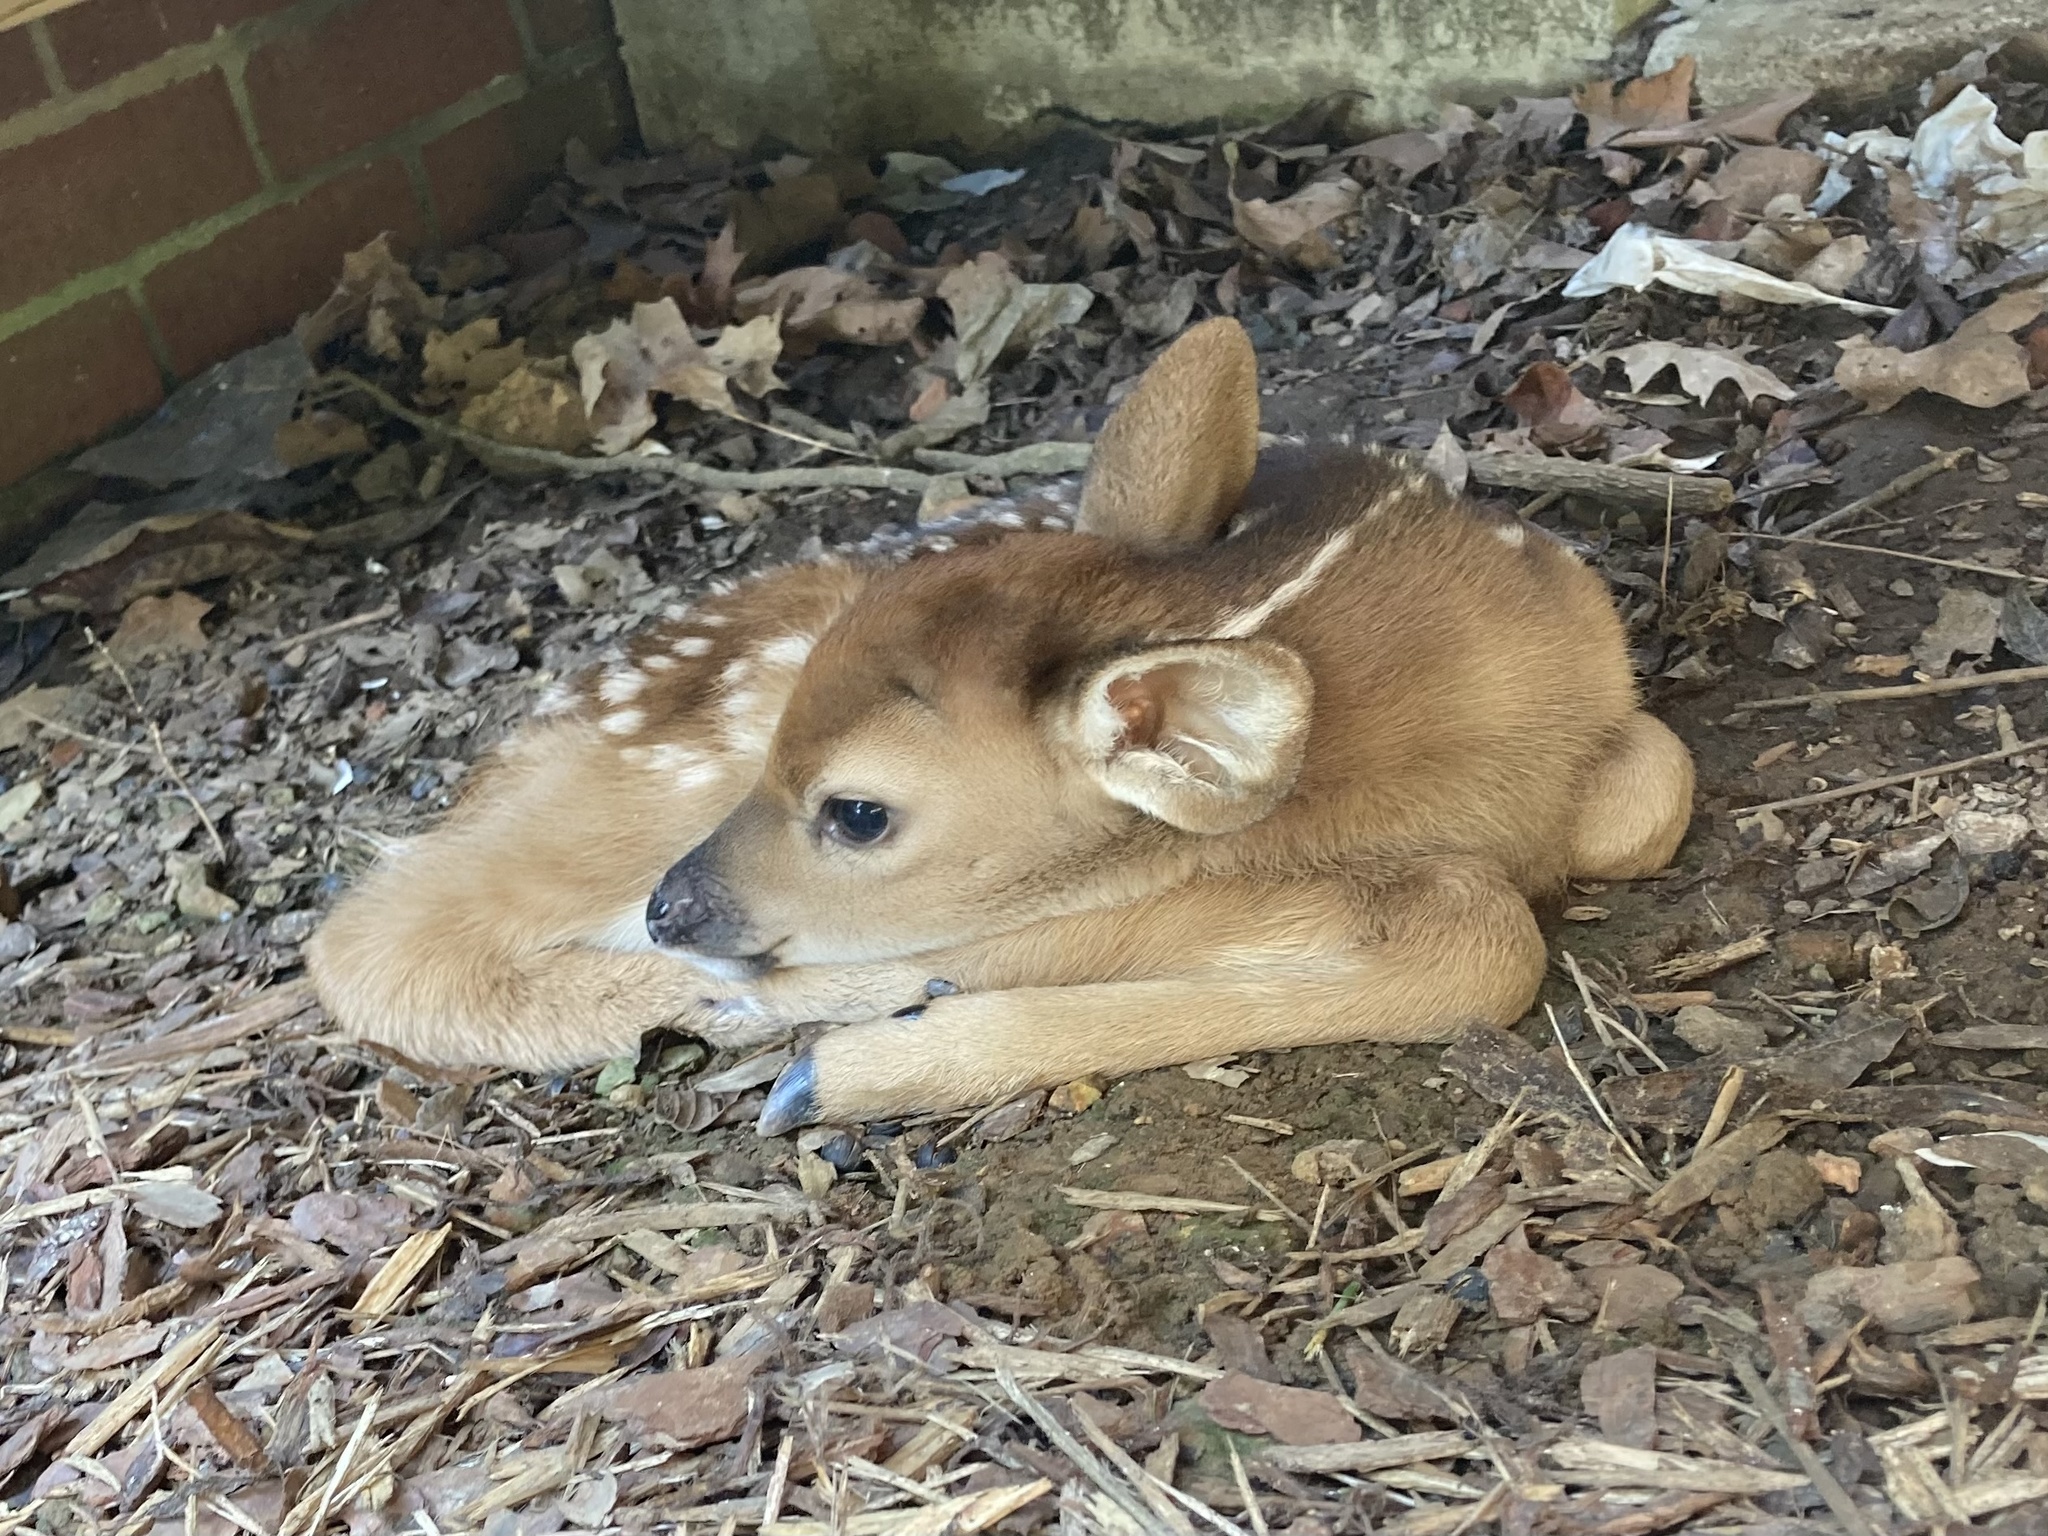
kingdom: Animalia
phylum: Chordata
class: Mammalia
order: Artiodactyla
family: Cervidae
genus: Odocoileus
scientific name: Odocoileus virginianus
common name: White-tailed deer
